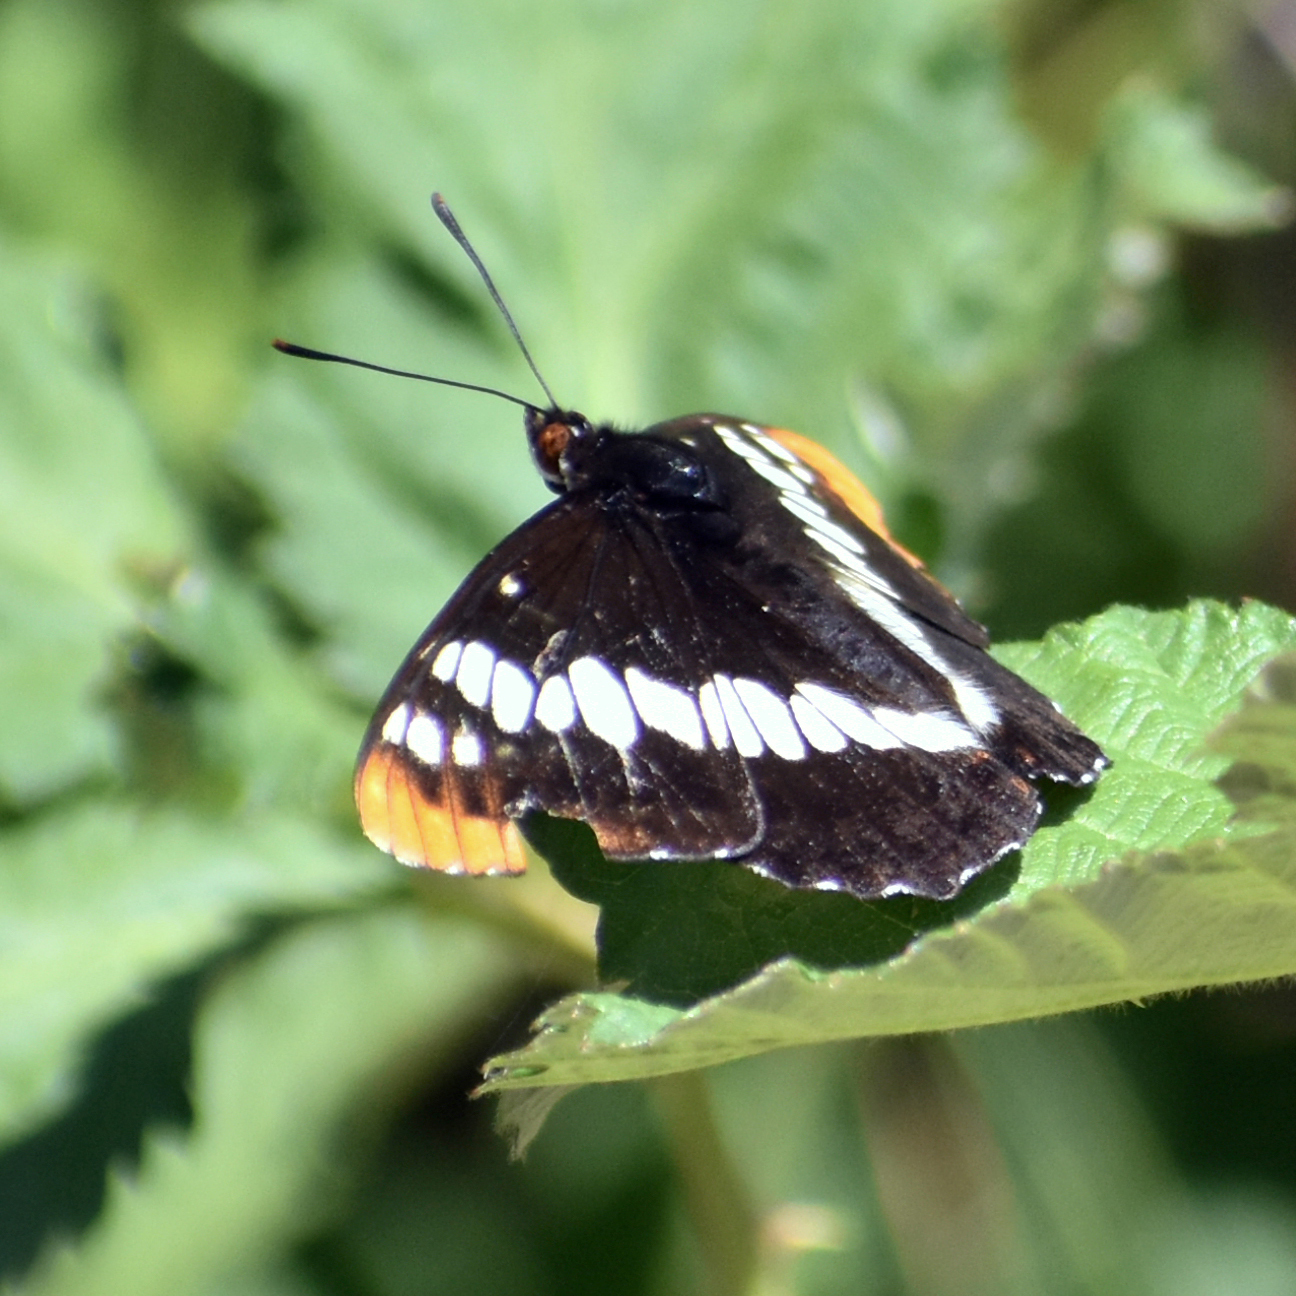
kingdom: Animalia
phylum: Arthropoda
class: Insecta
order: Lepidoptera
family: Nymphalidae
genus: Limenitis
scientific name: Limenitis lorquini
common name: Lorquin's admiral
